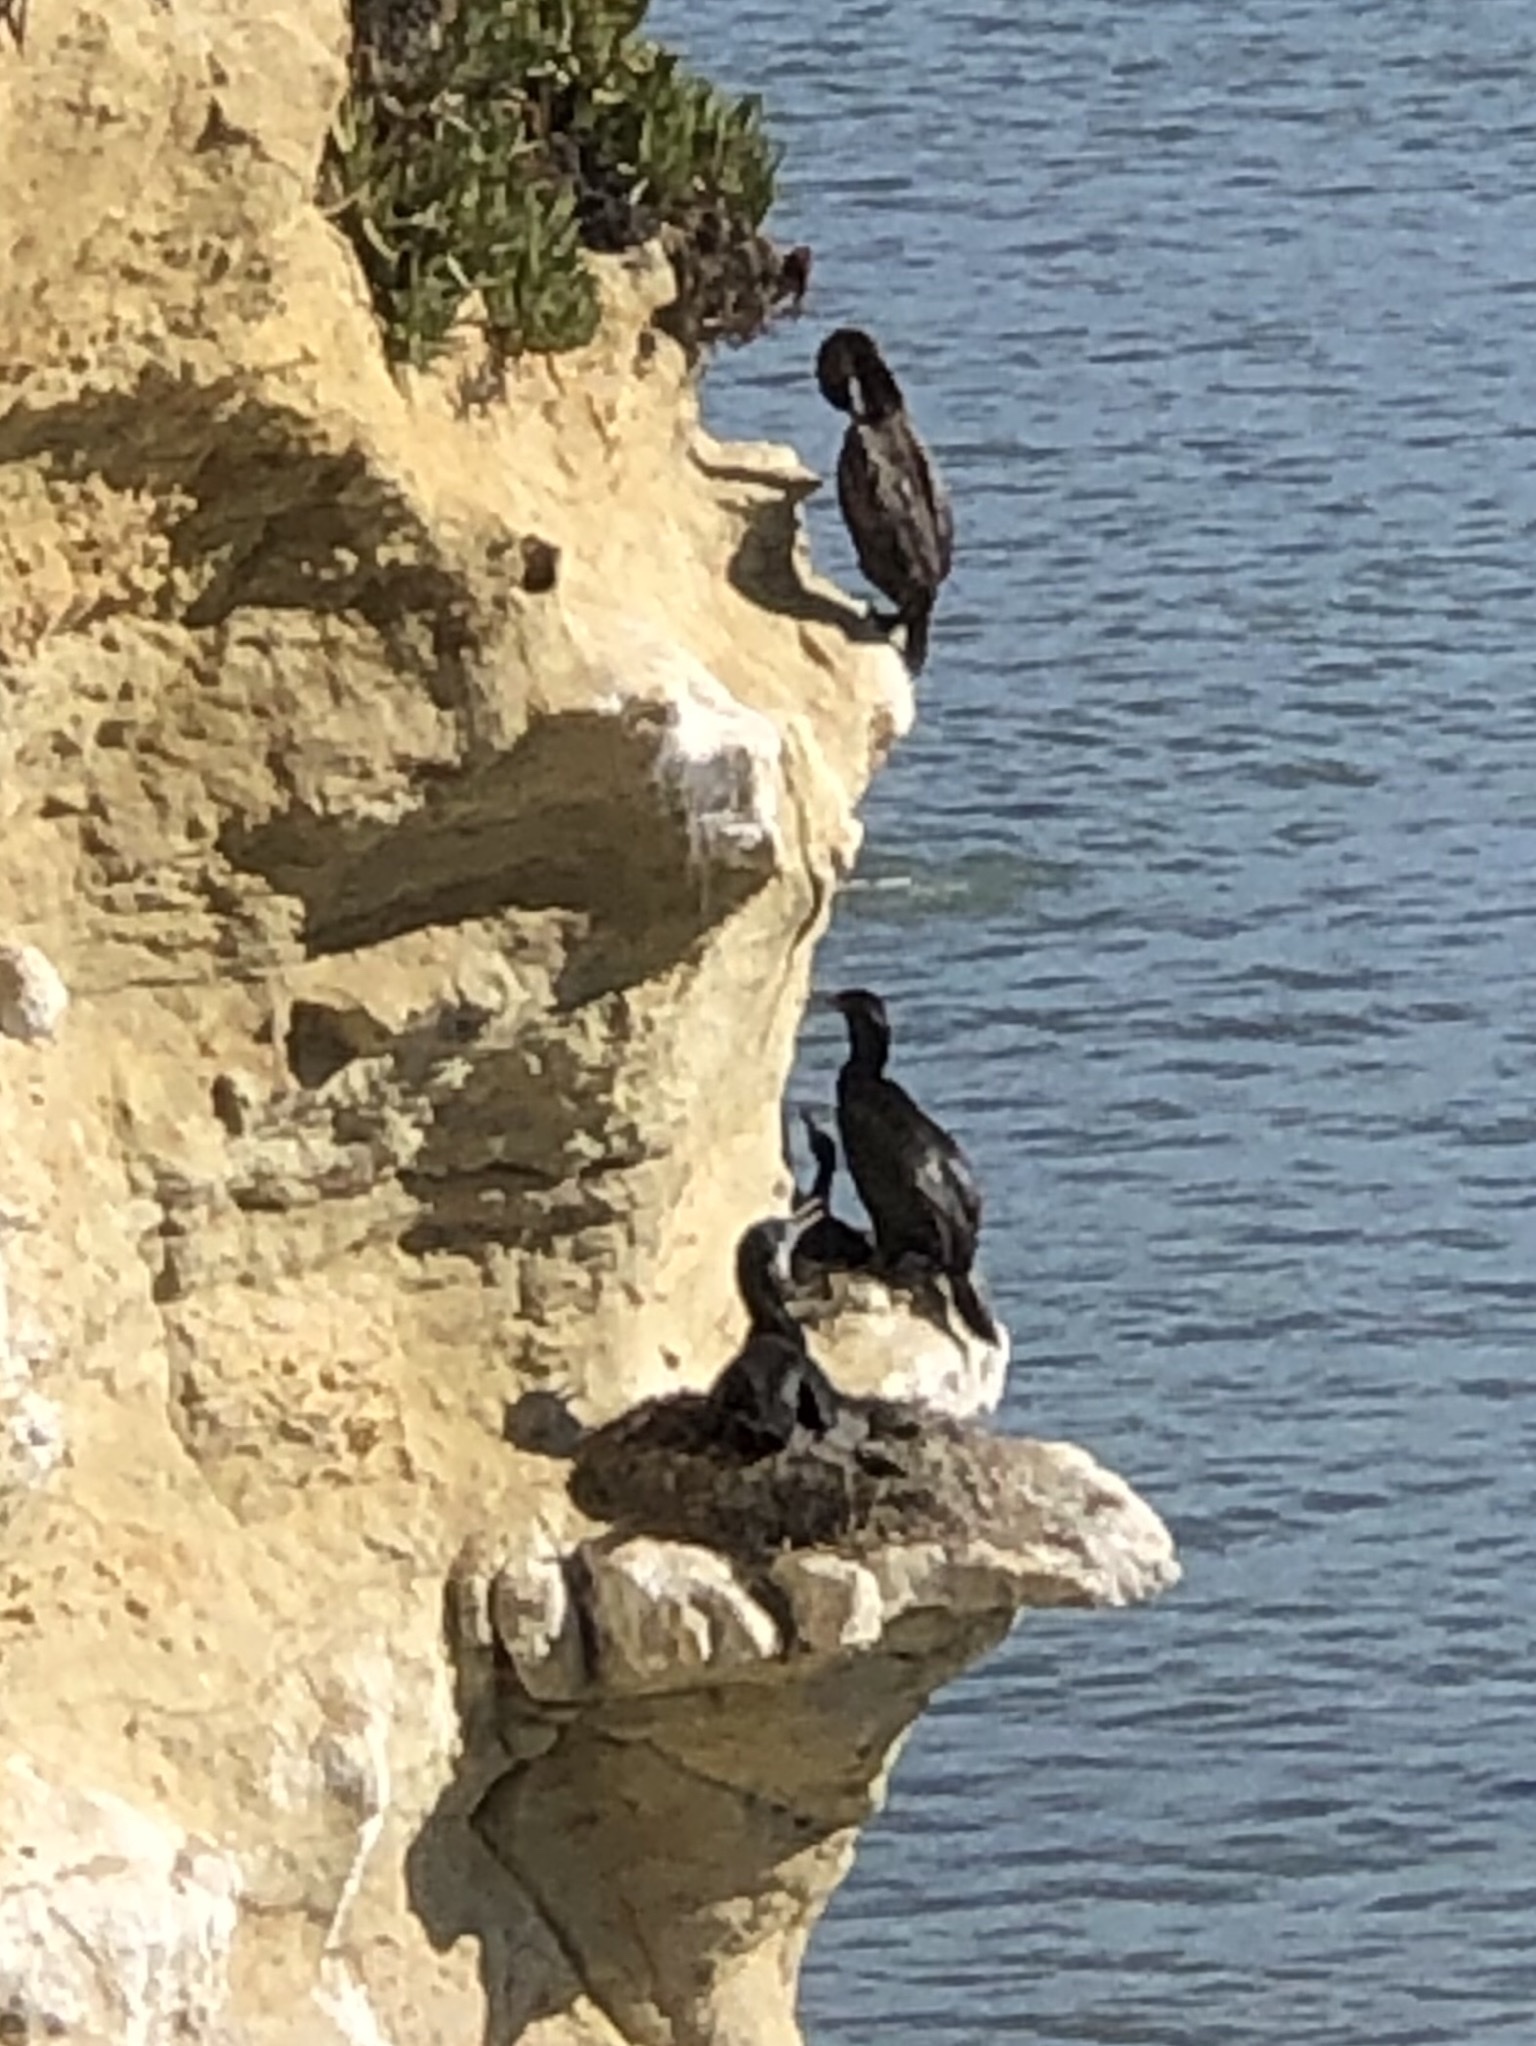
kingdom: Animalia
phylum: Chordata
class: Aves
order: Suliformes
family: Phalacrocoracidae
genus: Urile
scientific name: Urile penicillatus
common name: Brandt's cormorant
